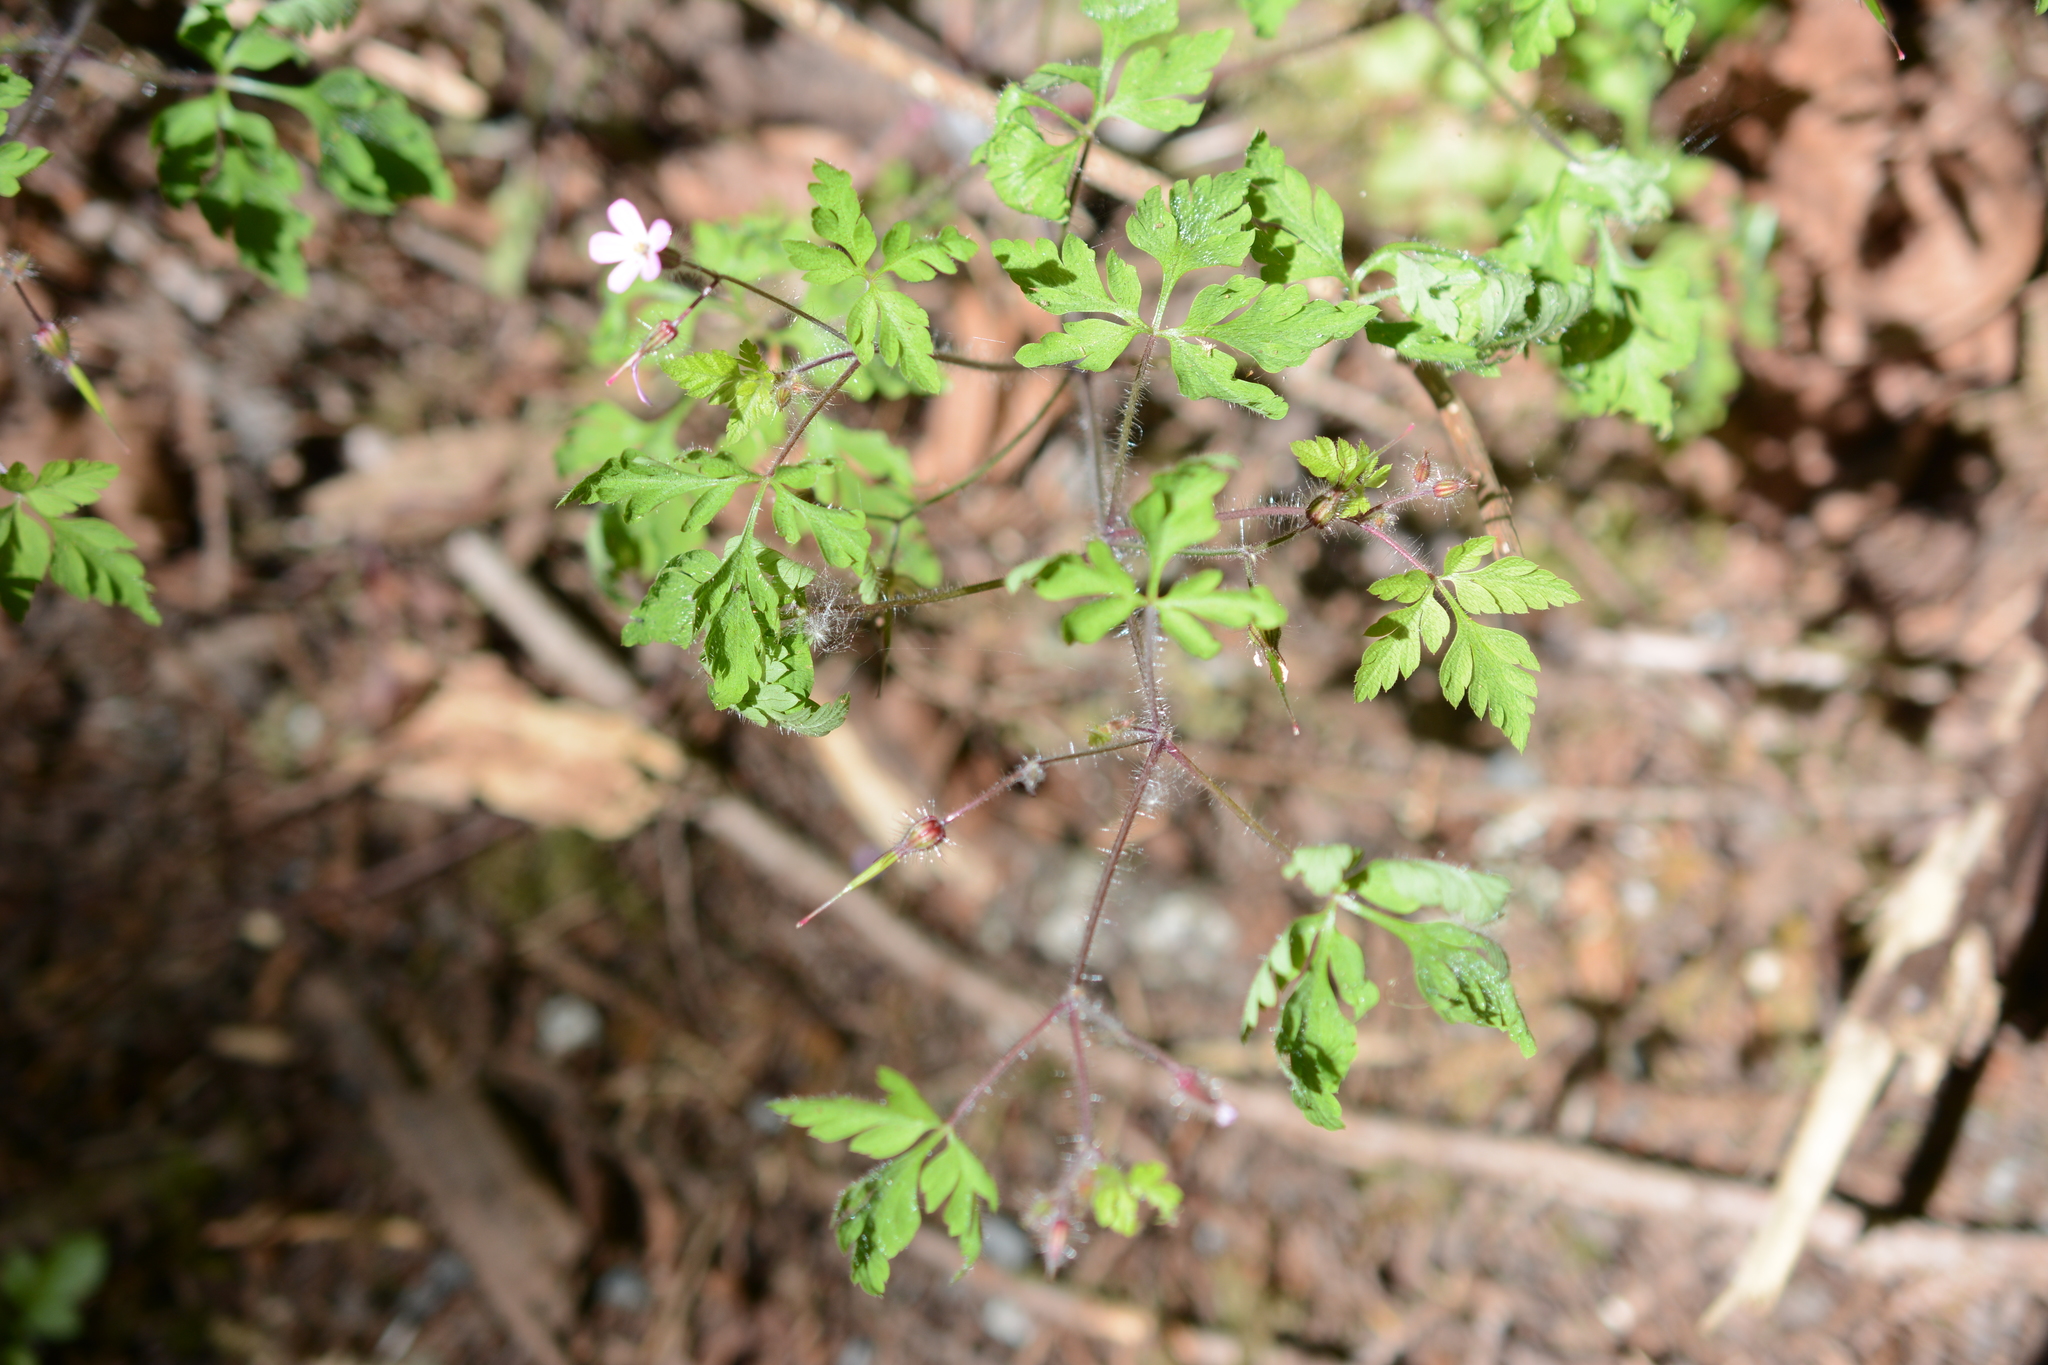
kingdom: Plantae
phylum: Tracheophyta
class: Magnoliopsida
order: Geraniales
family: Geraniaceae
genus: Geranium
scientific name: Geranium robertianum
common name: Herb-robert
